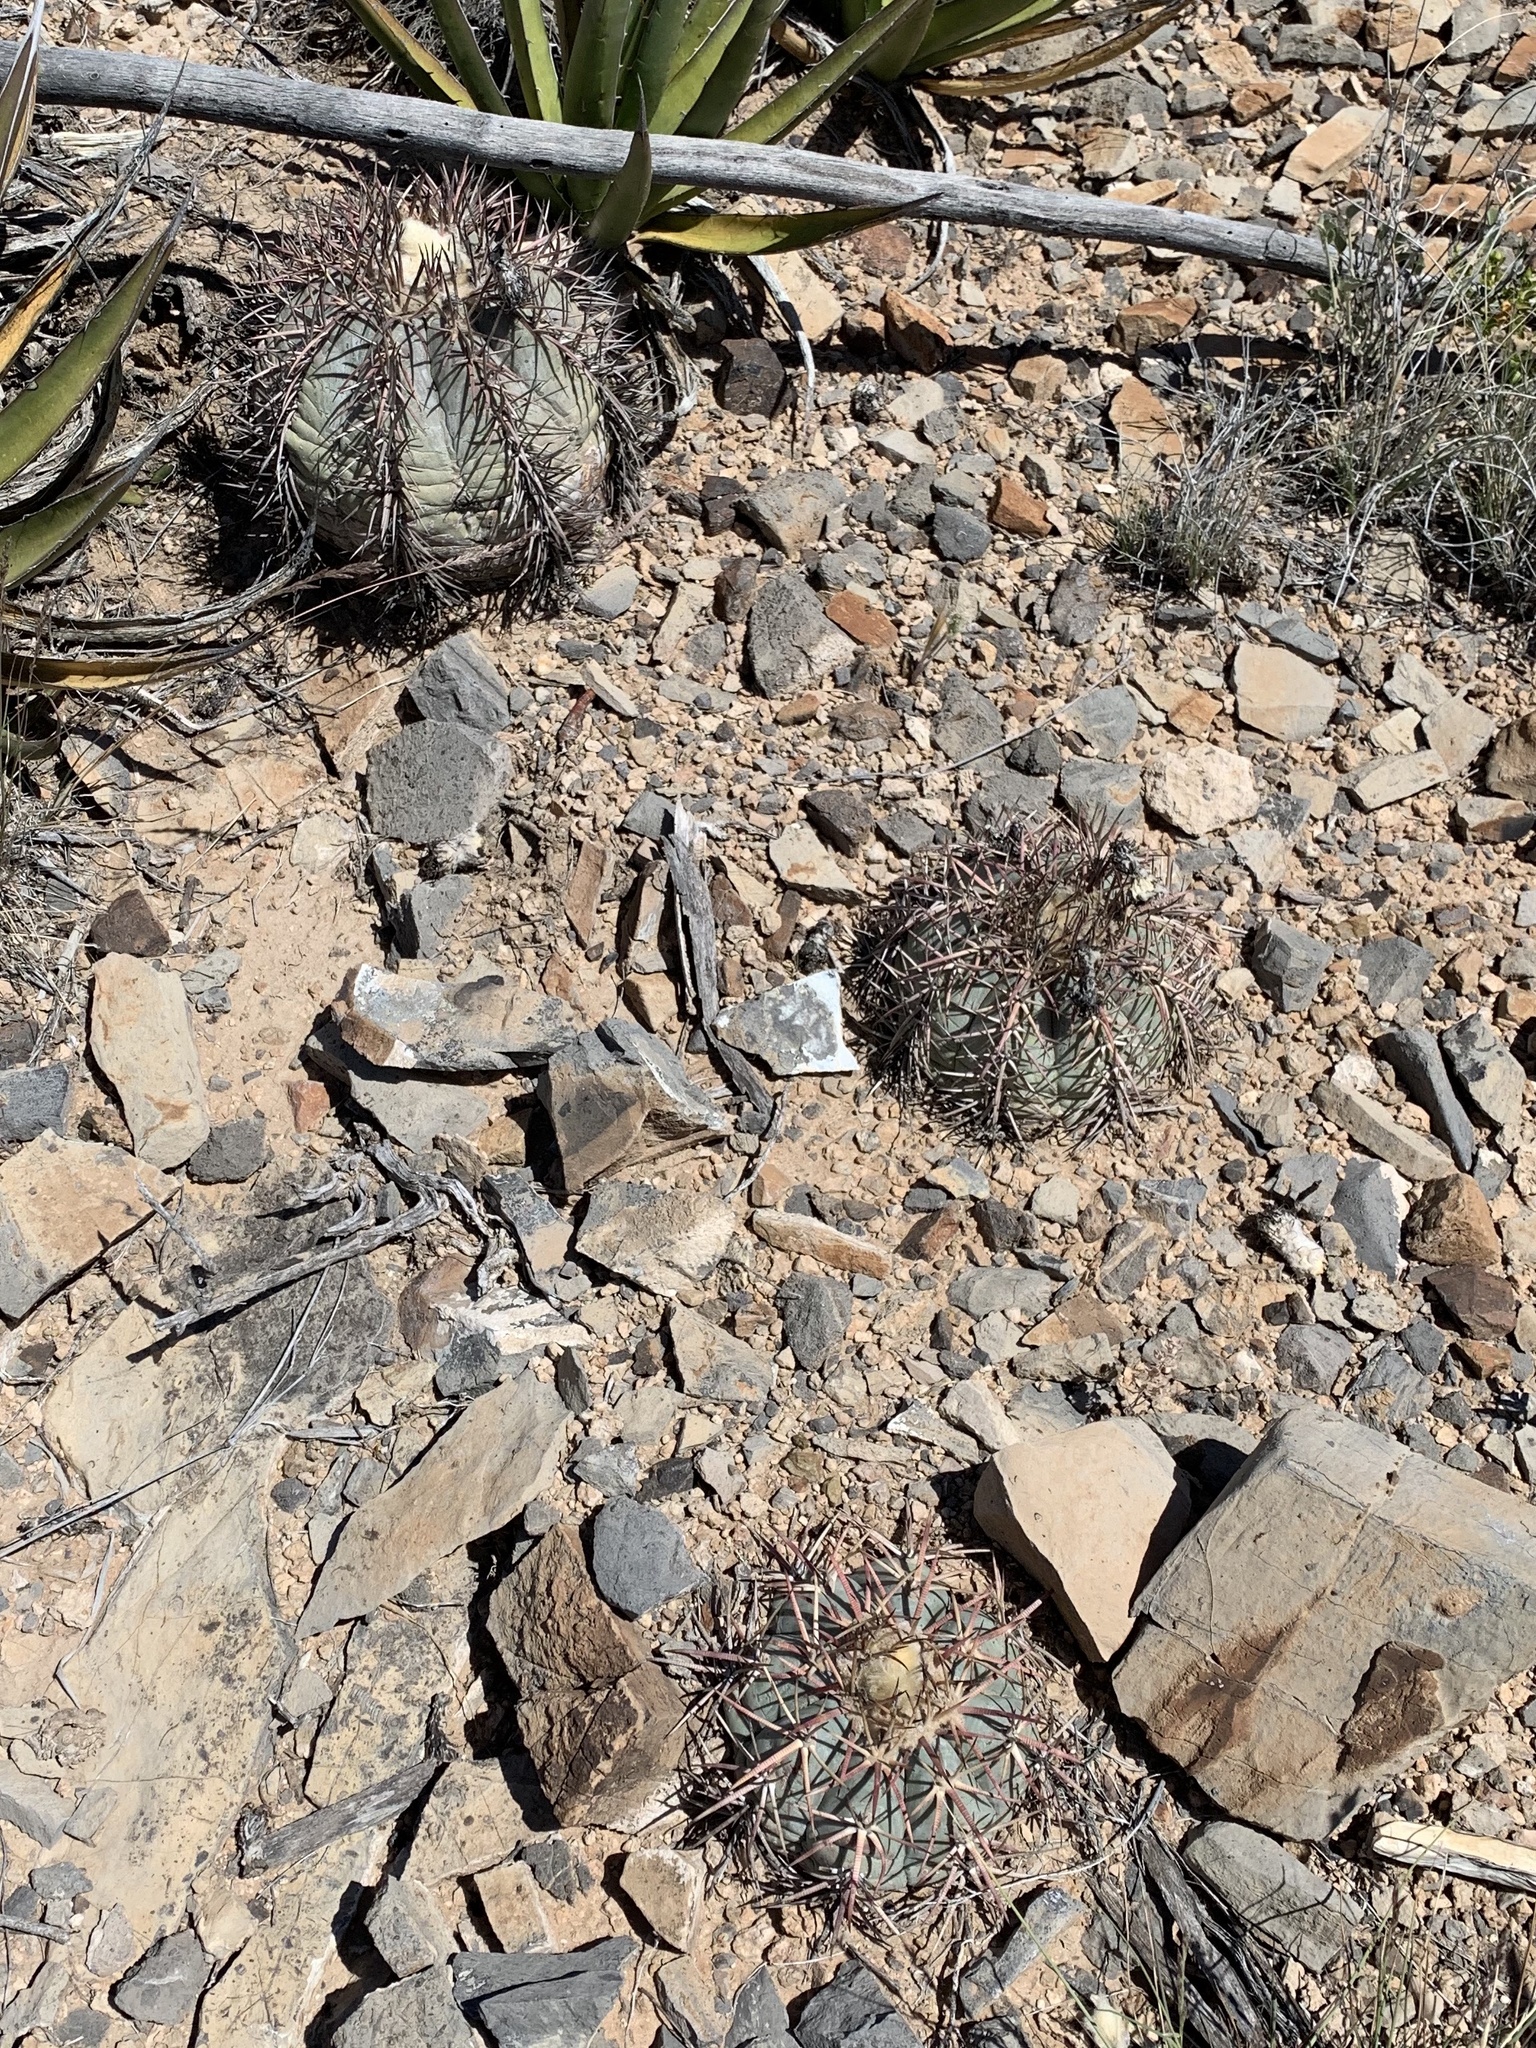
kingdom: Plantae
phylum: Tracheophyta
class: Magnoliopsida
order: Caryophyllales
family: Cactaceae
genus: Echinocactus
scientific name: Echinocactus horizonthalonius
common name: Devilshead
